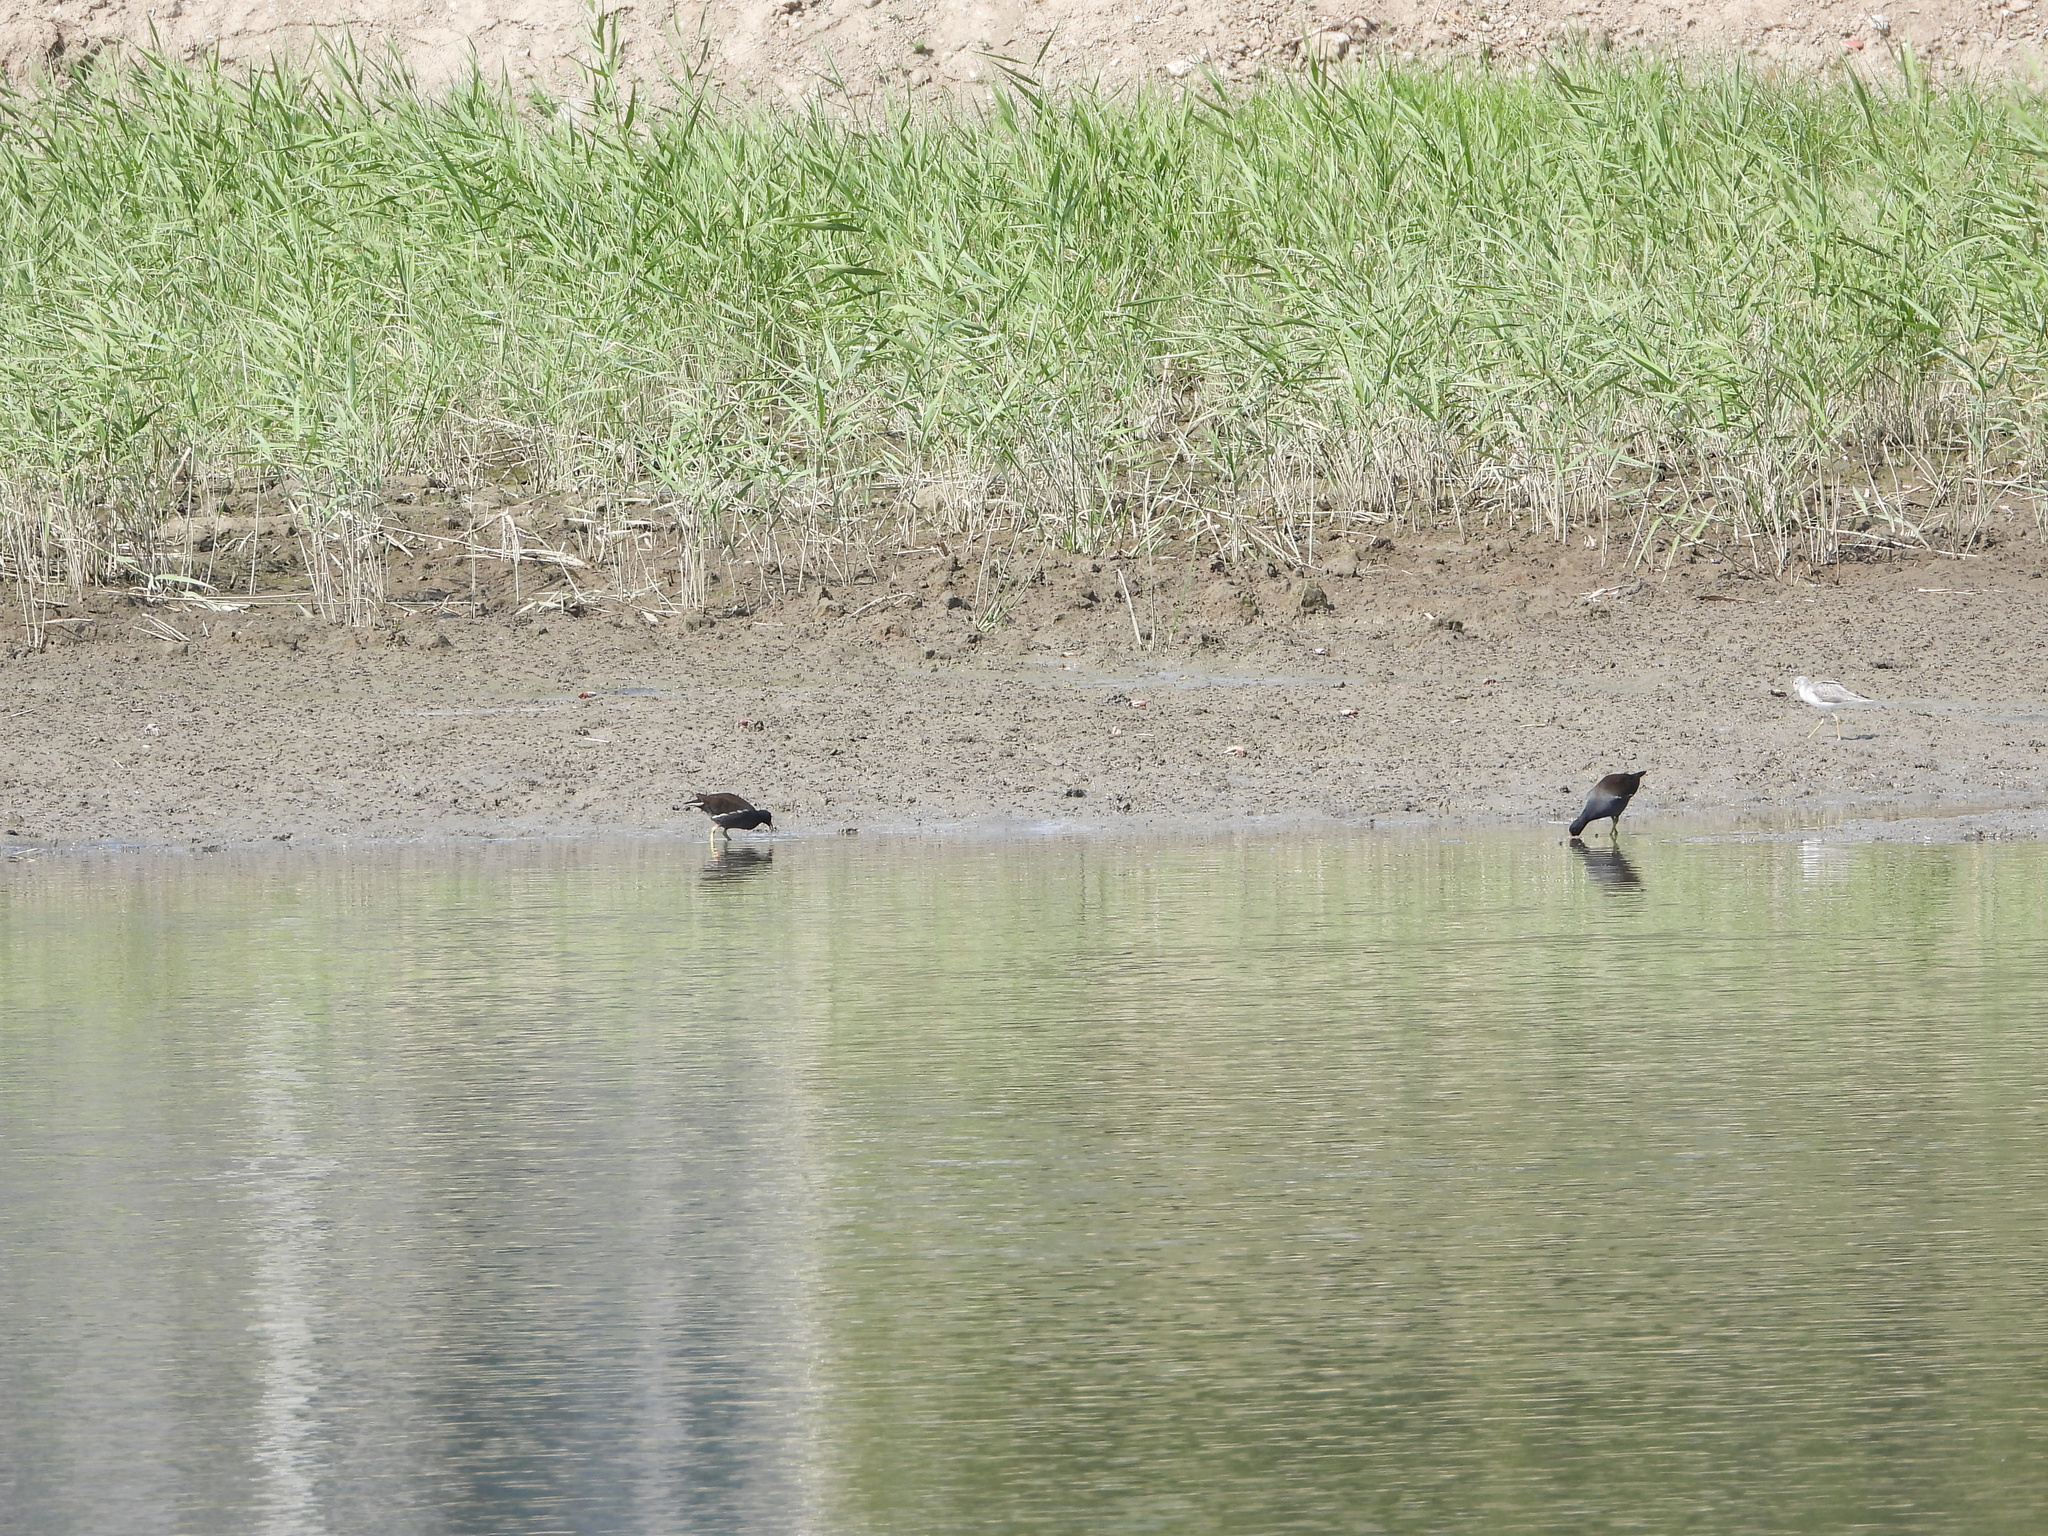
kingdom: Animalia
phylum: Chordata
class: Aves
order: Gruiformes
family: Rallidae
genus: Gallinula
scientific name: Gallinula chloropus
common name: Common moorhen
